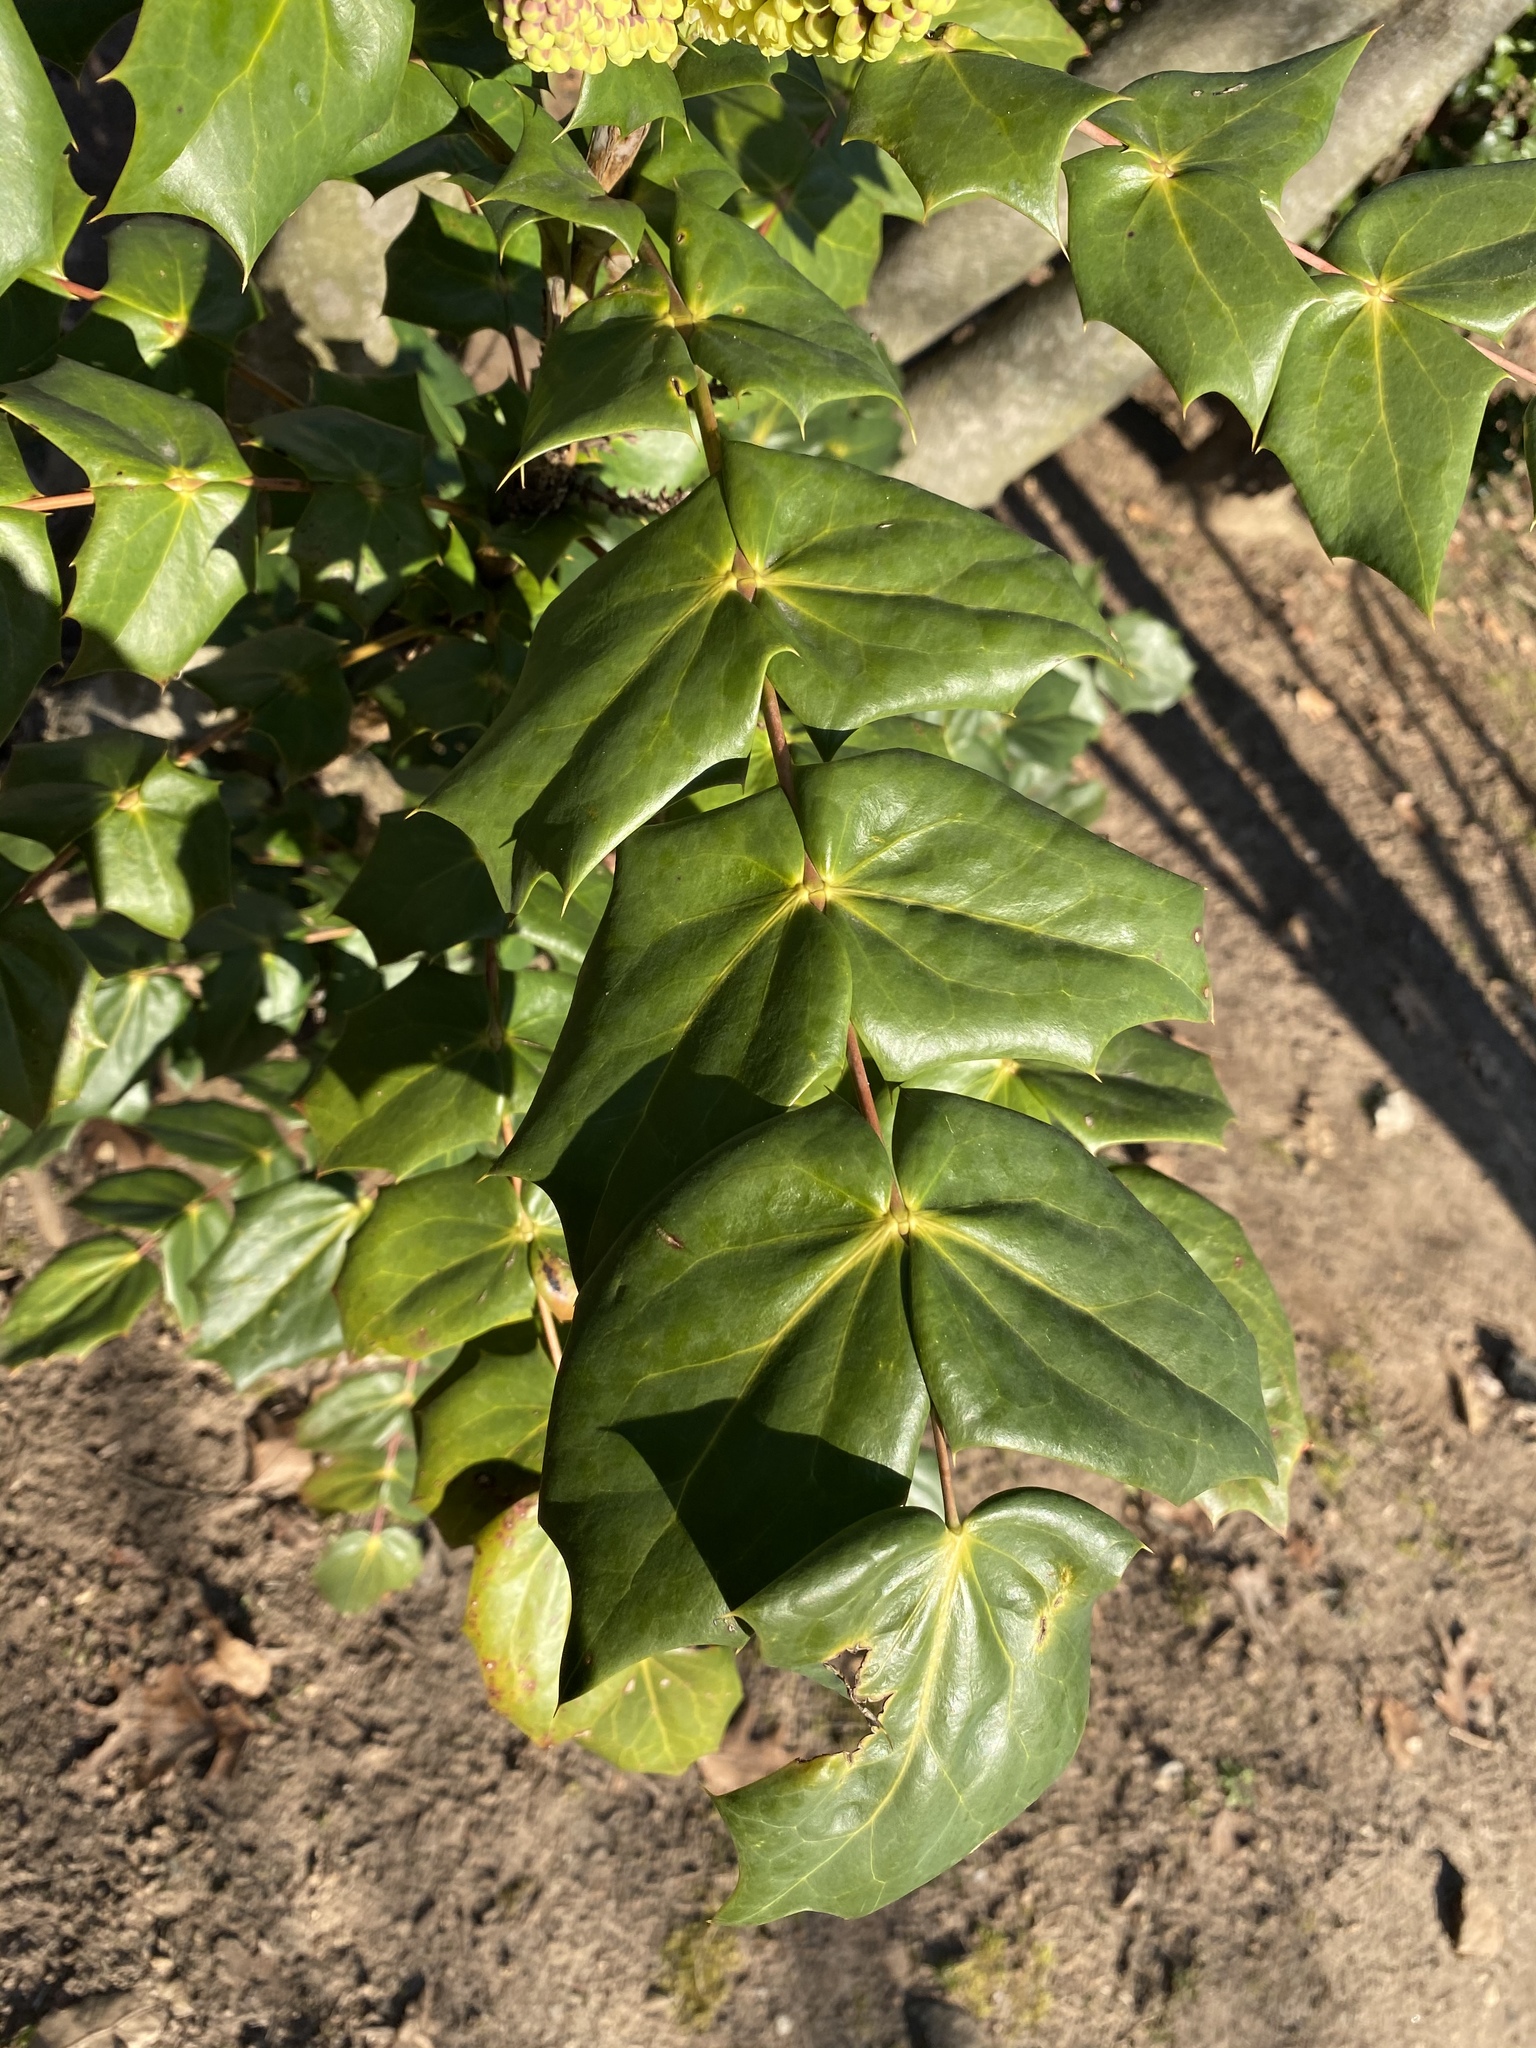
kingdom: Plantae
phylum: Tracheophyta
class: Magnoliopsida
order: Ranunculales
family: Berberidaceae
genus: Mahonia
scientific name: Mahonia bealei
